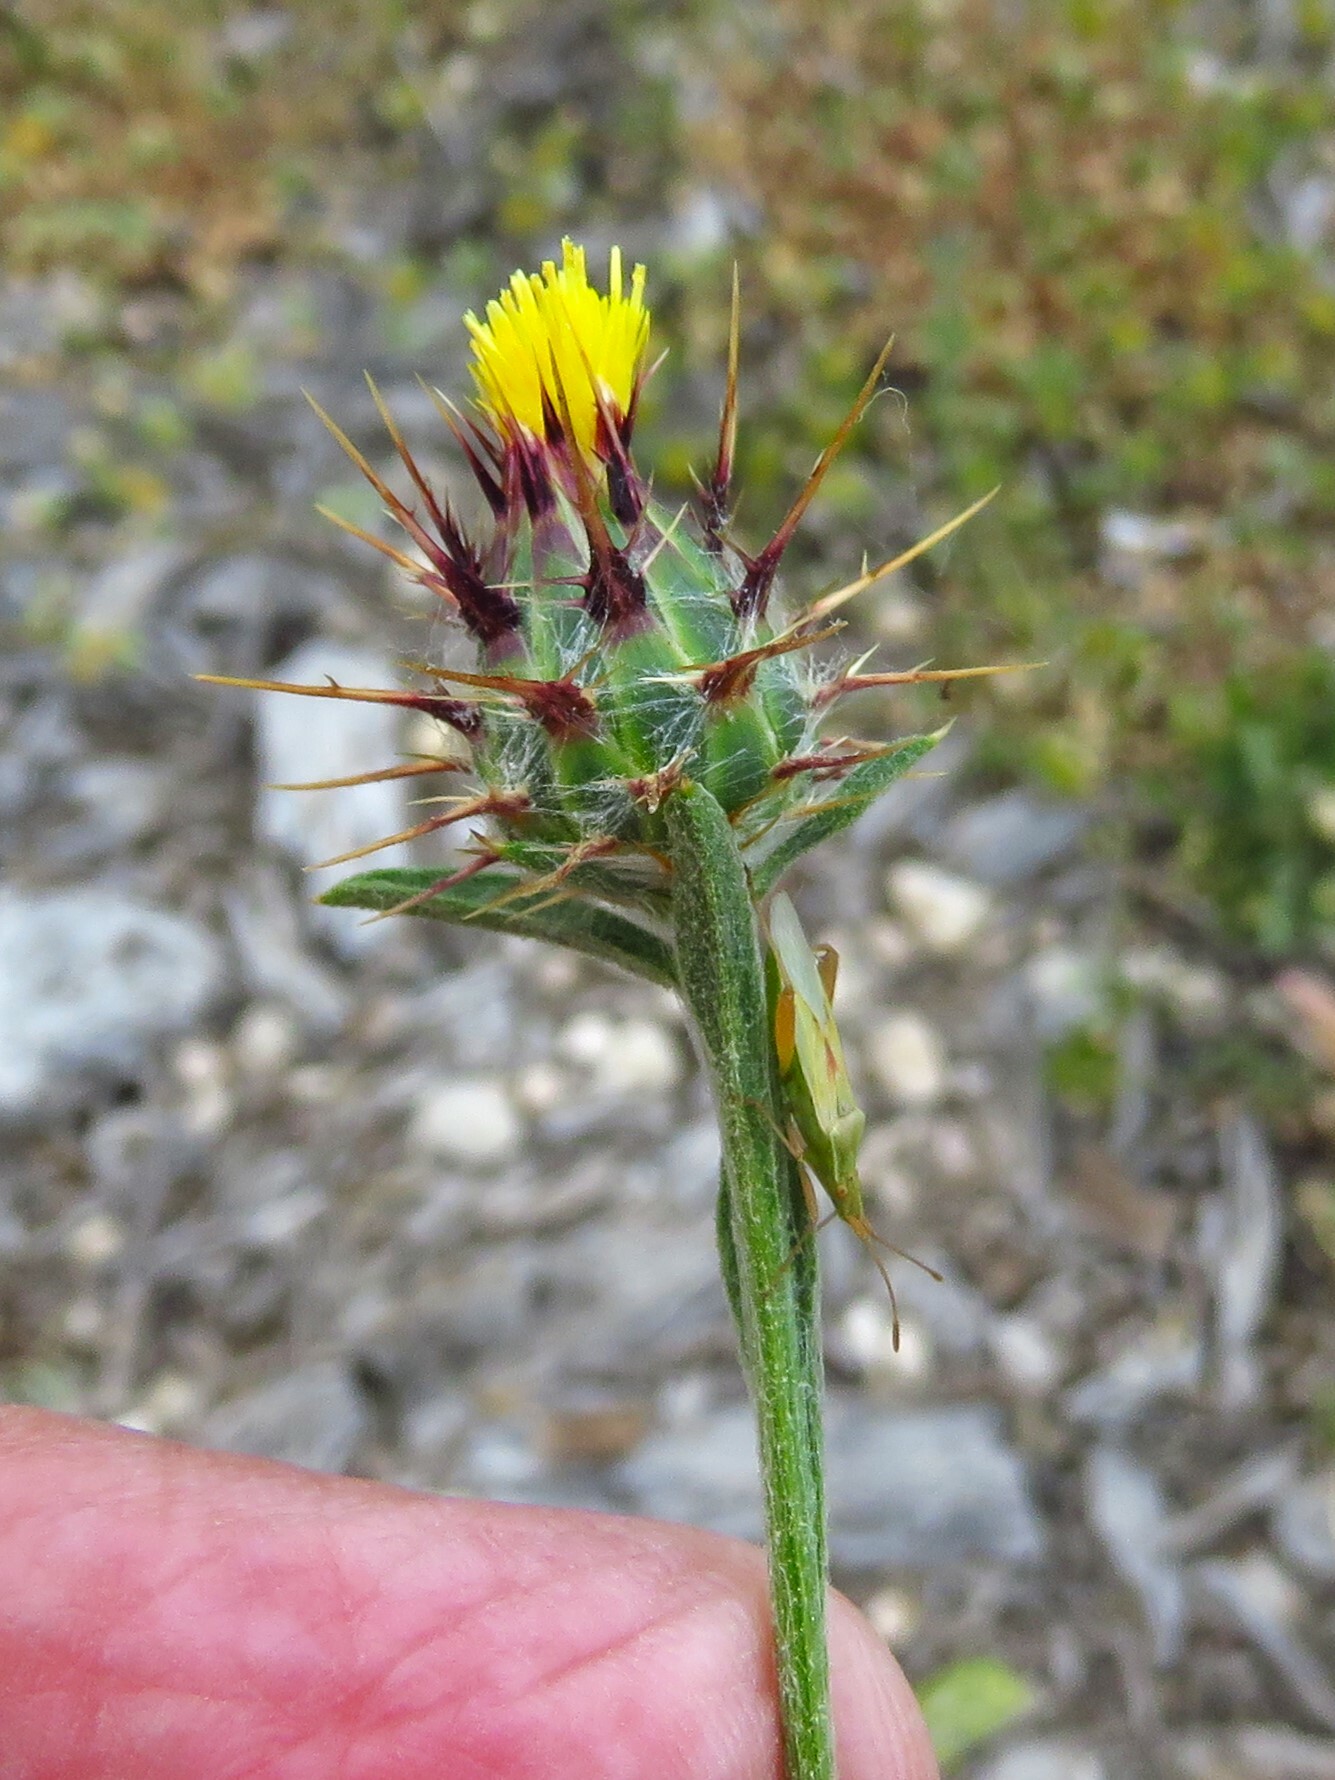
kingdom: Plantae
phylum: Tracheophyta
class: Magnoliopsida
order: Asterales
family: Asteraceae
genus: Centaurea
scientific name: Centaurea melitensis
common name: Maltese star-thistle
